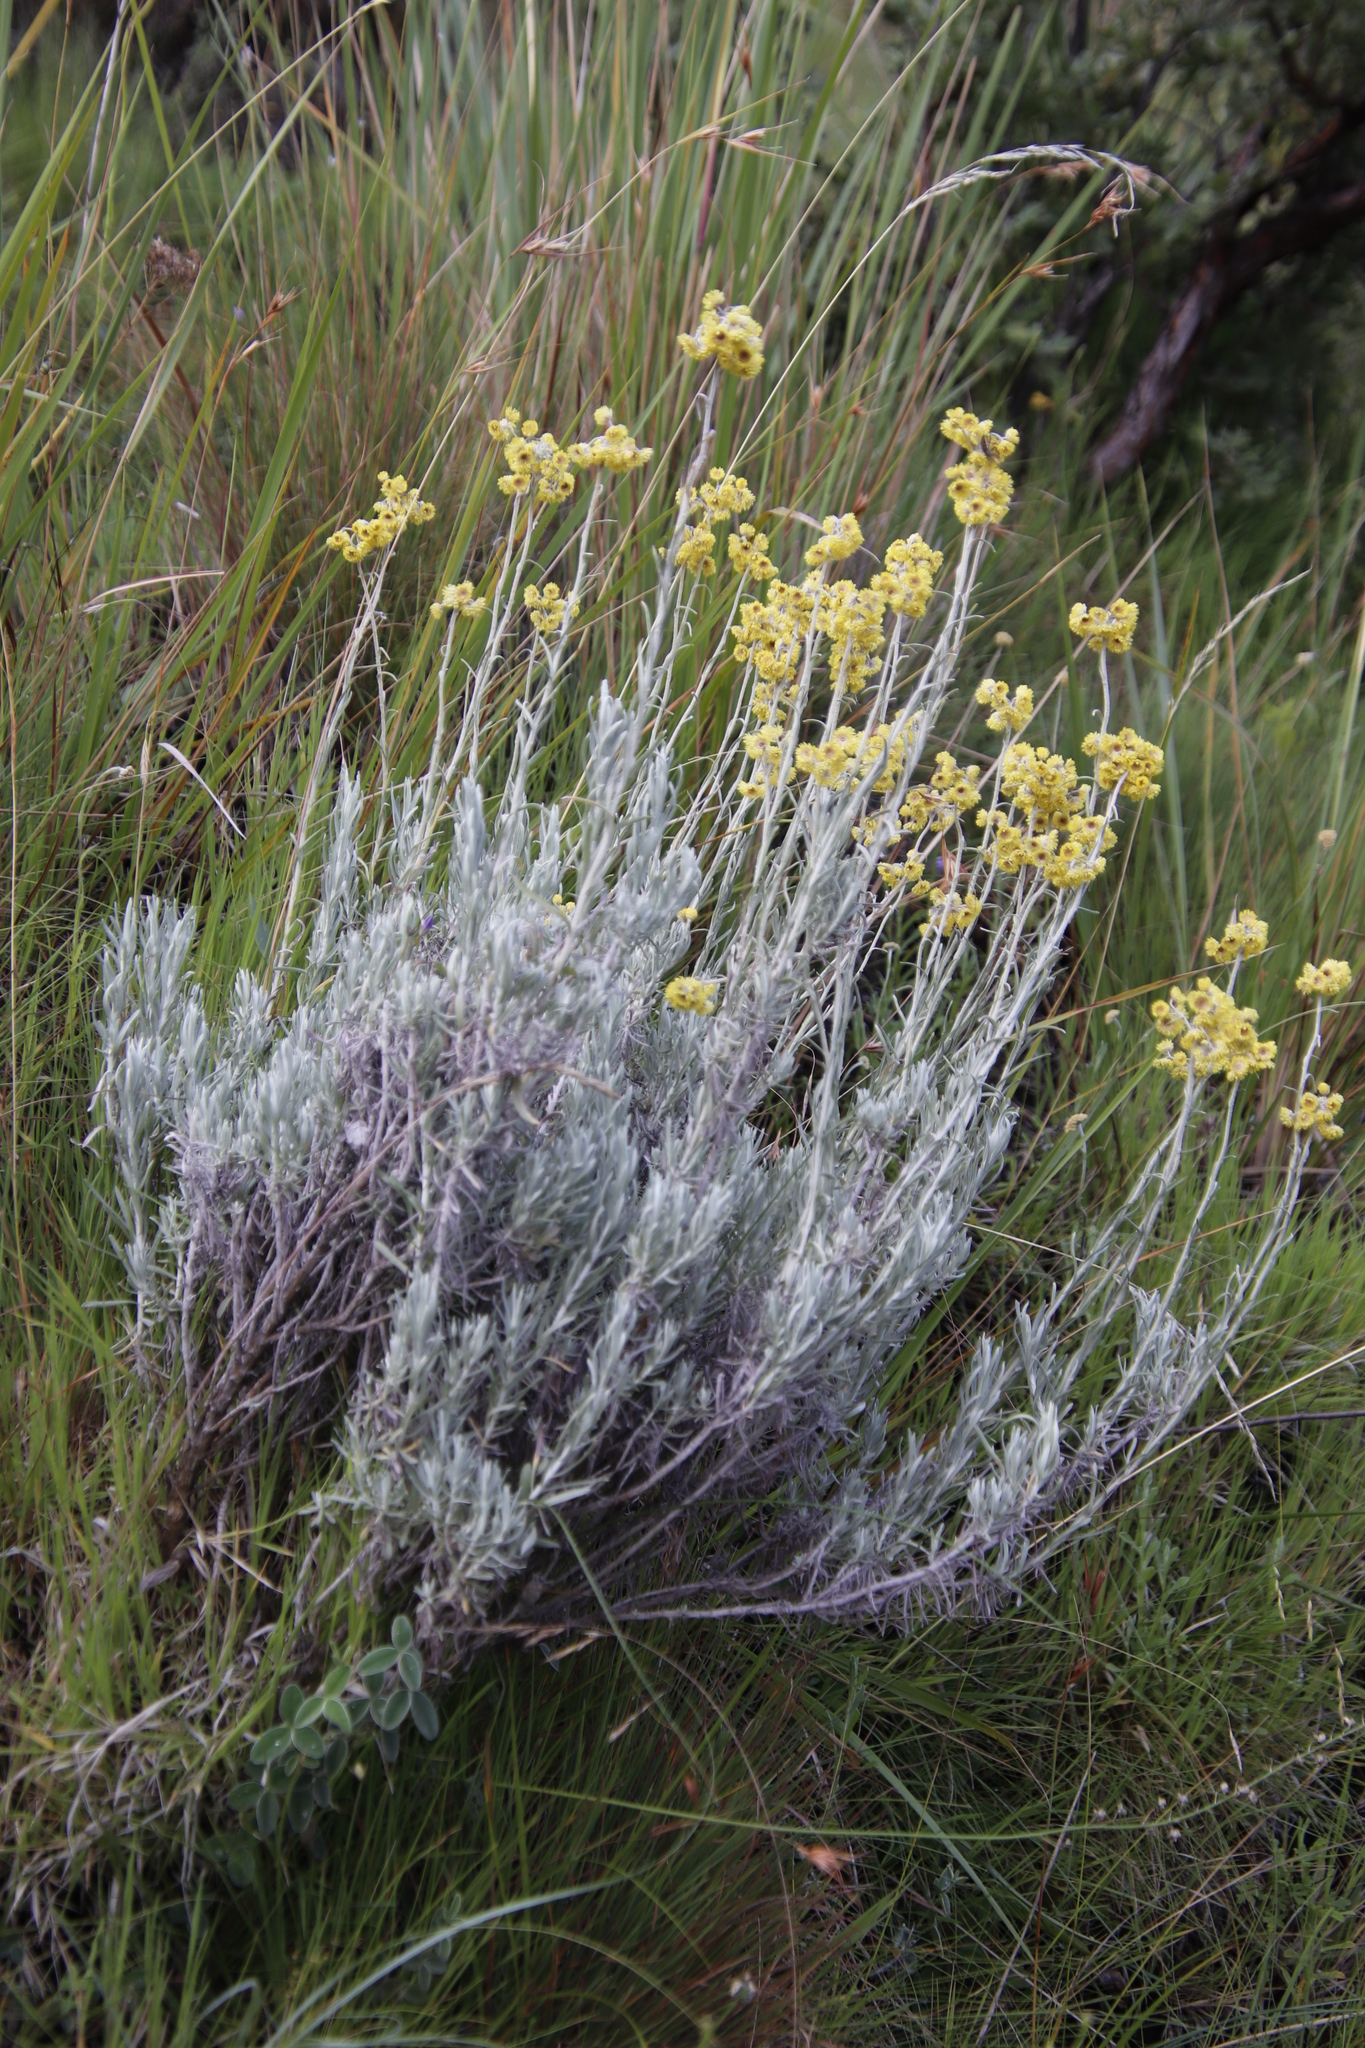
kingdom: Plantae
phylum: Tracheophyta
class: Magnoliopsida
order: Asterales
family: Asteraceae
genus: Helichrysum
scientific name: Helichrysum odoratissimum
